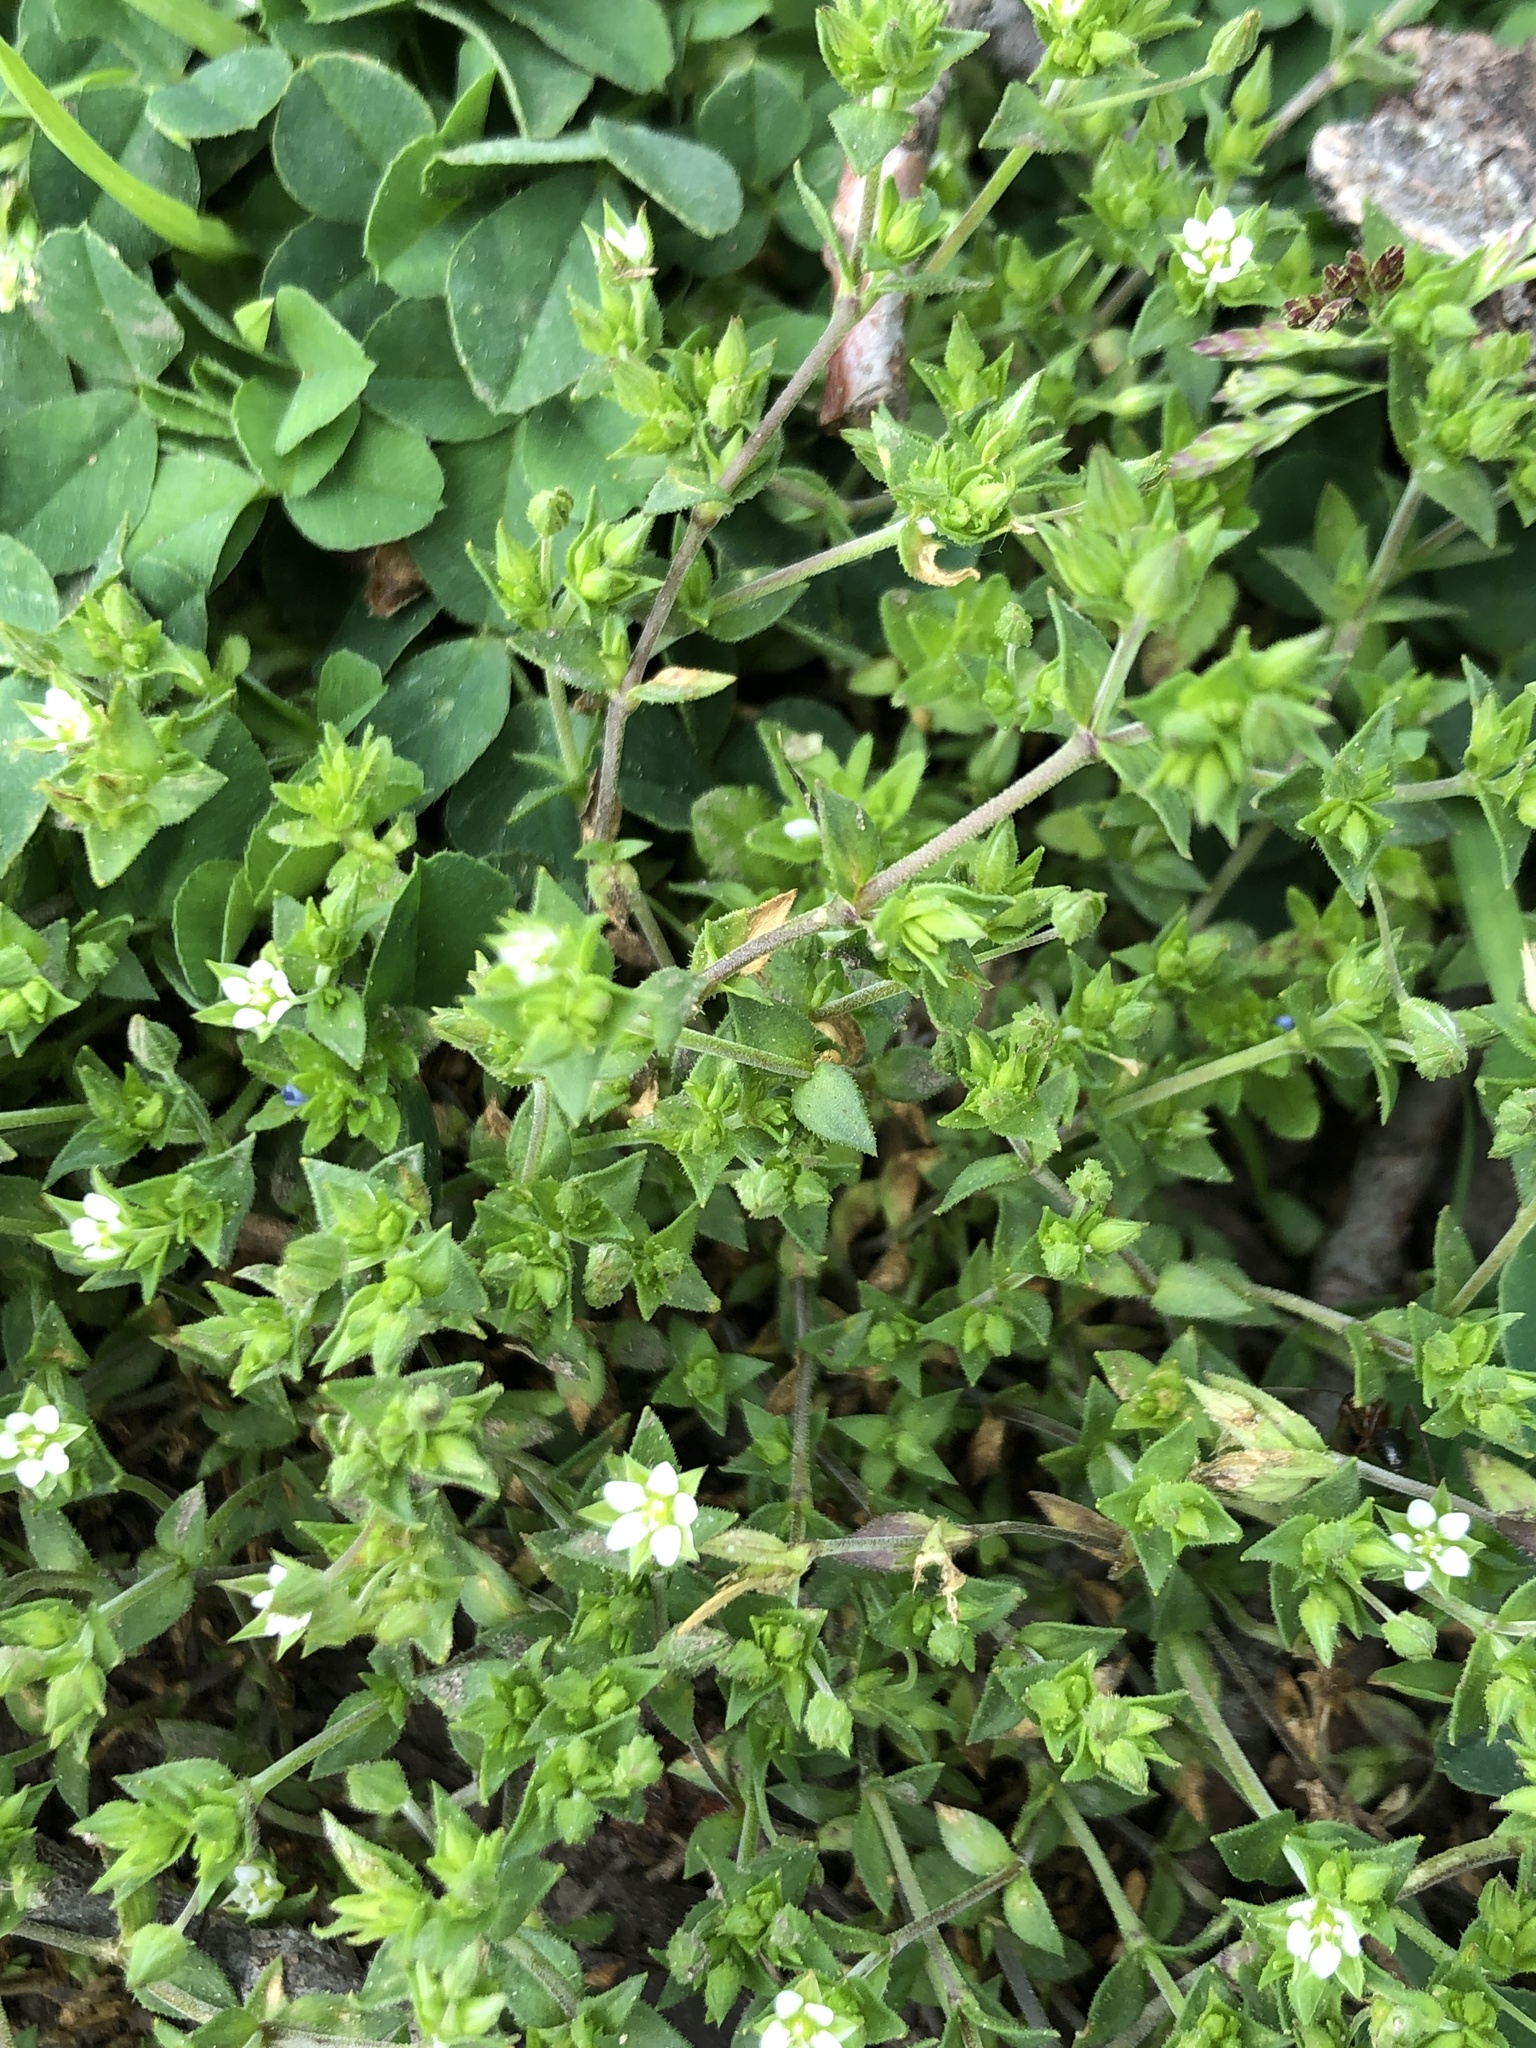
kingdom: Plantae
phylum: Tracheophyta
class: Magnoliopsida
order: Caryophyllales
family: Caryophyllaceae
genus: Arenaria
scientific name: Arenaria serpyllifolia
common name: Thyme-leaved sandwort
